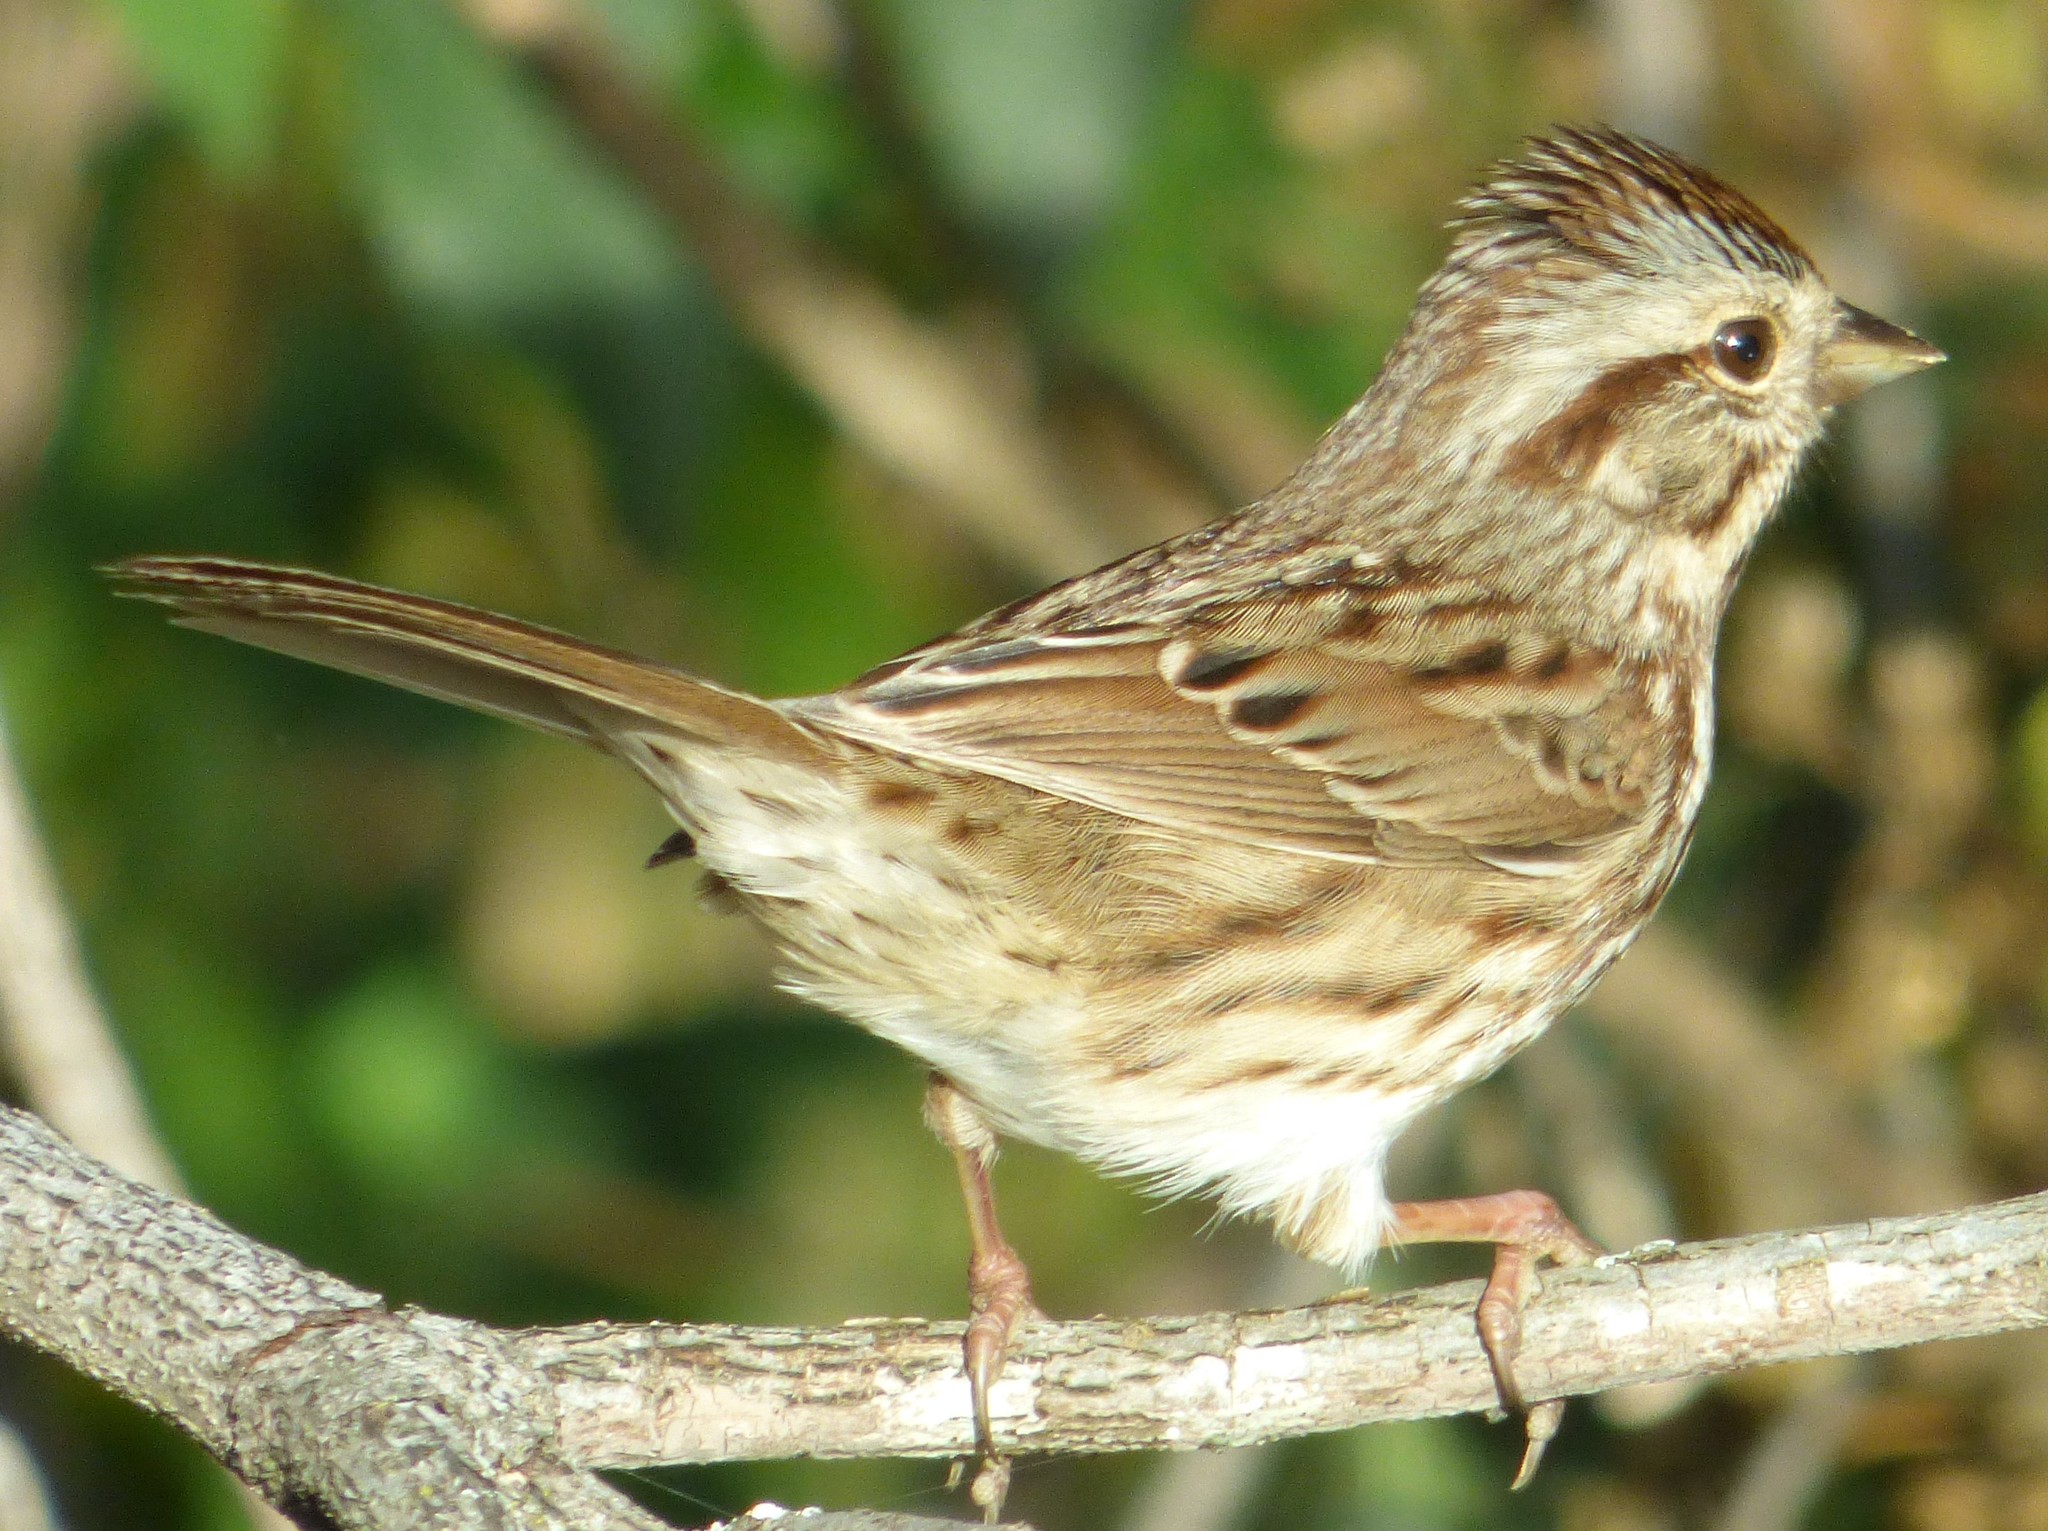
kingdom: Animalia
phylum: Chordata
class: Aves
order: Passeriformes
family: Passerellidae
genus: Melospiza
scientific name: Melospiza melodia
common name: Song sparrow
